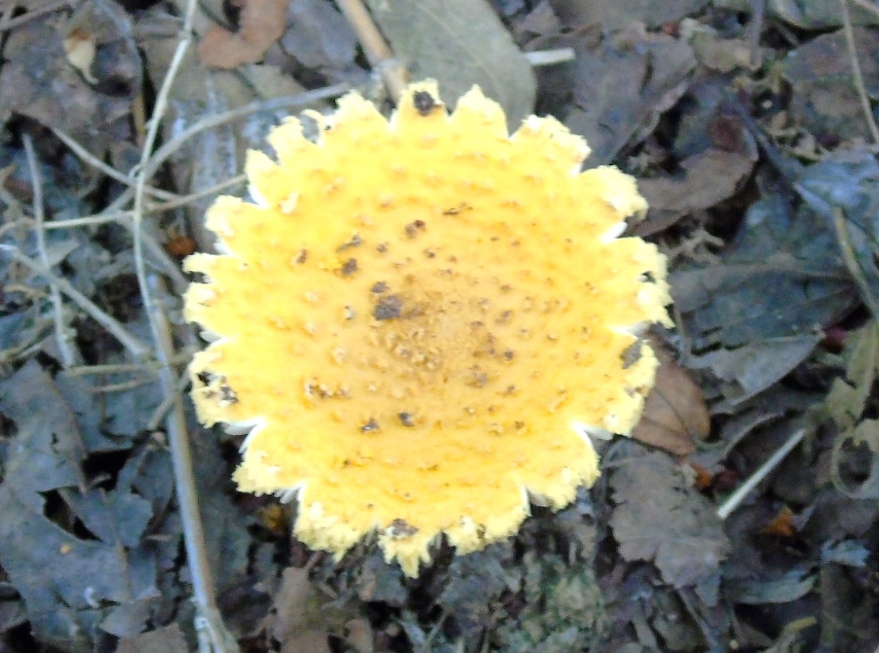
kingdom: Fungi
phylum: Basidiomycota
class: Agaricomycetes
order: Agaricales
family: Amanitaceae
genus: Amanita
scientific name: Amanita
